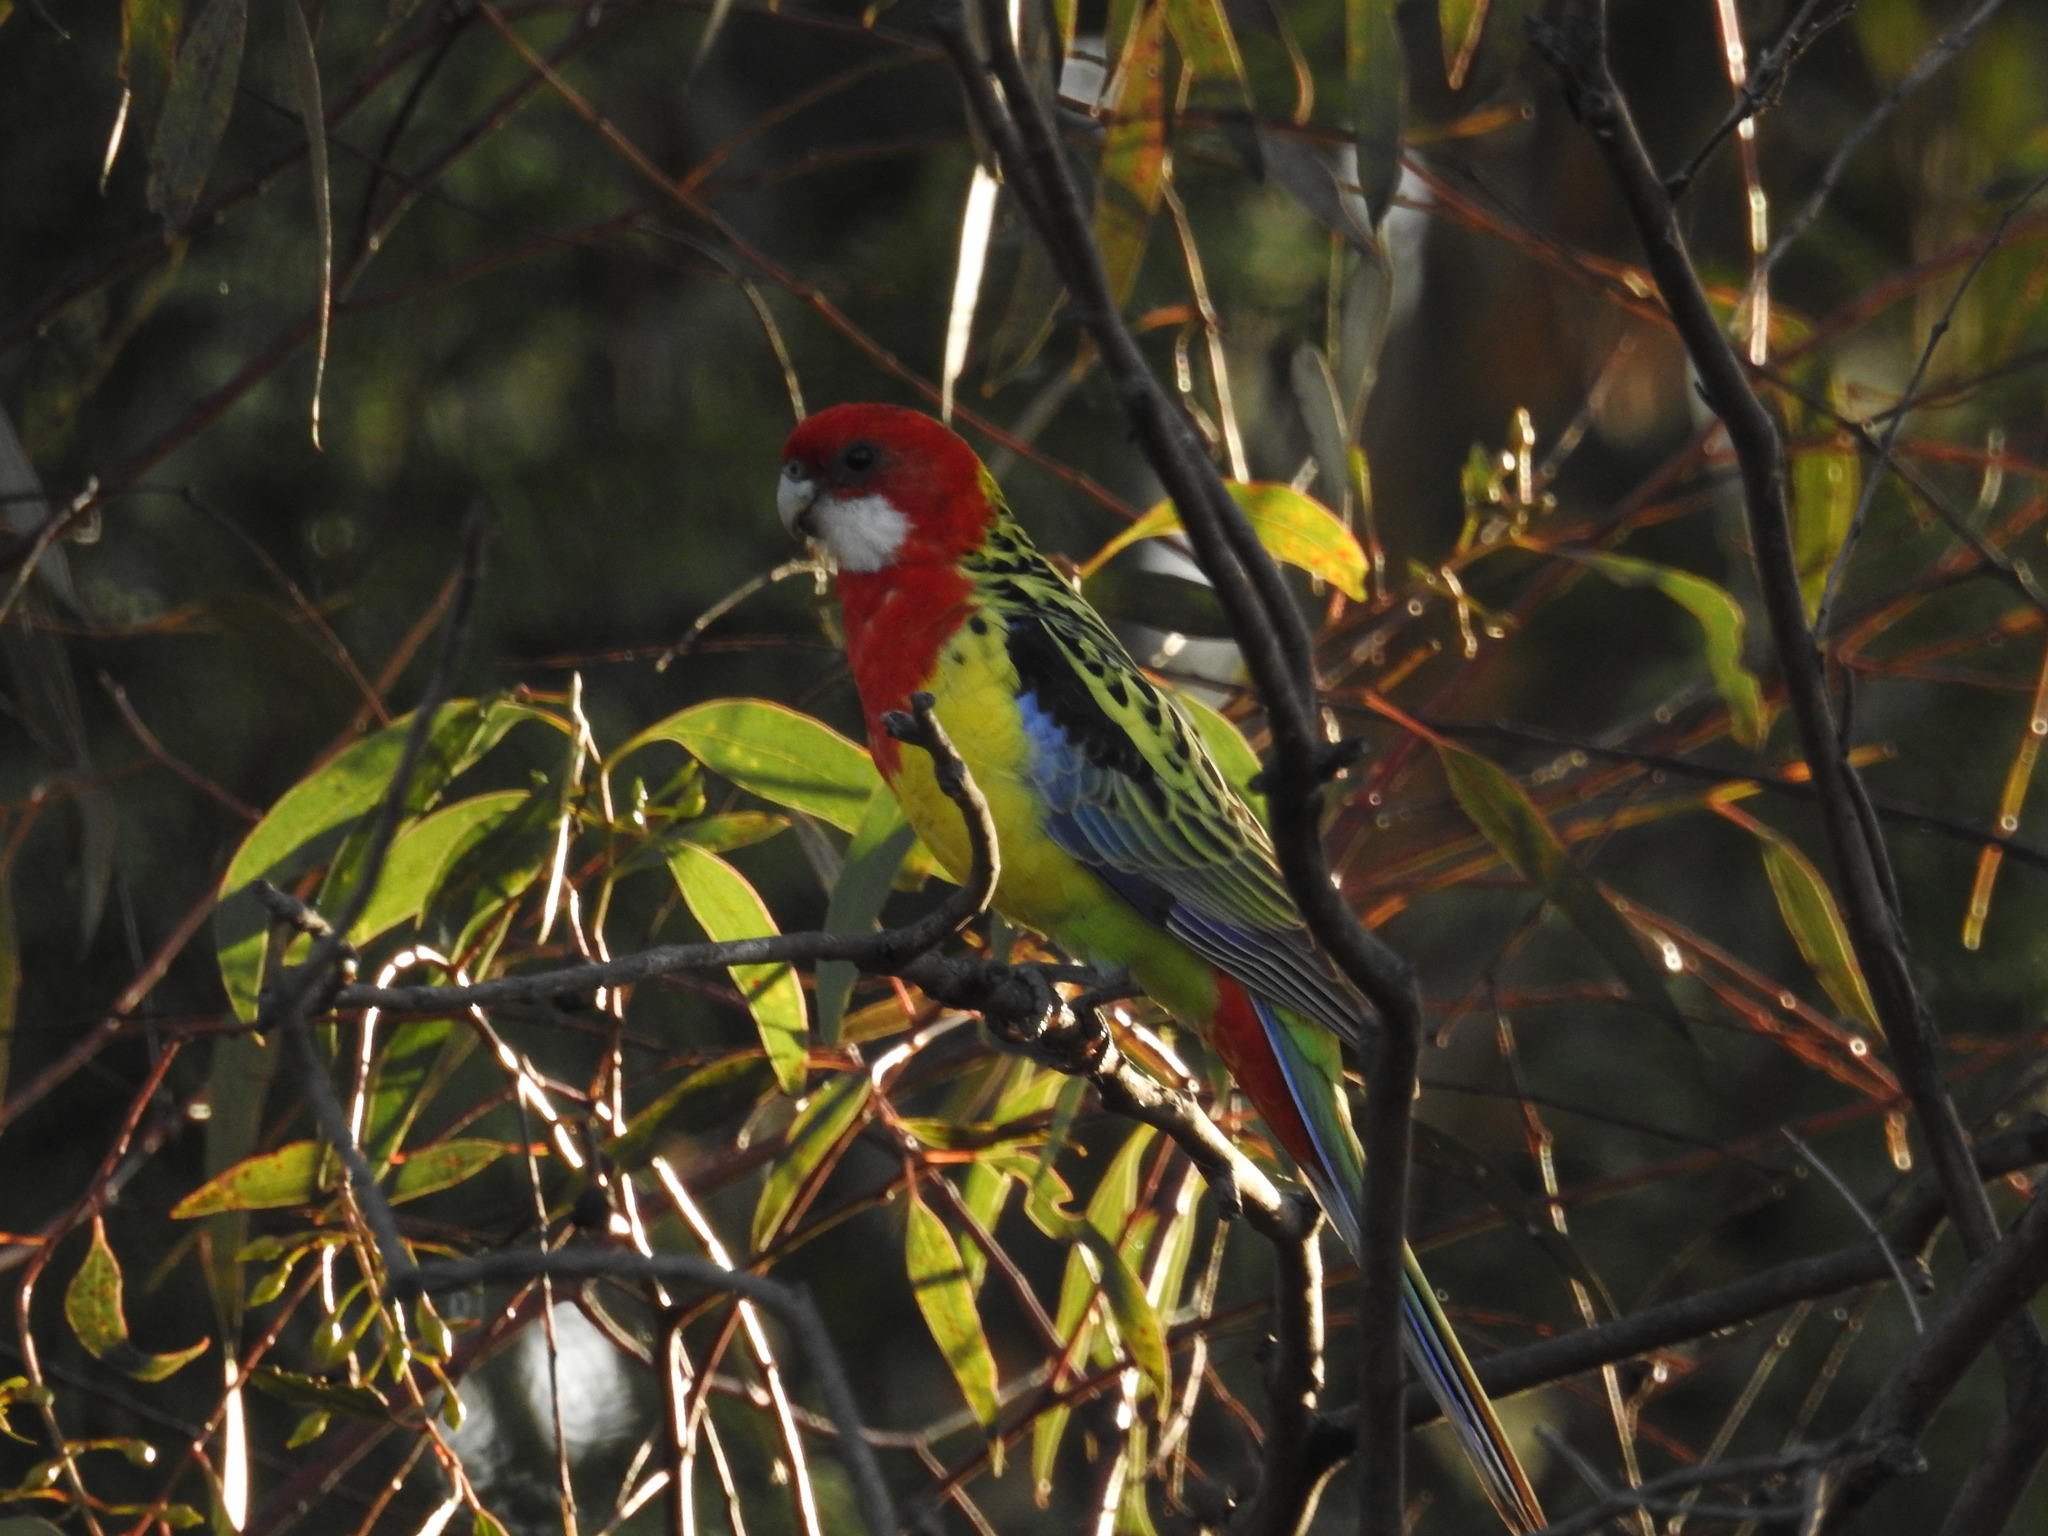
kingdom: Animalia
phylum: Chordata
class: Aves
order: Psittaciformes
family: Psittacidae
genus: Platycercus
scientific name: Platycercus eximius
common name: Eastern rosella
